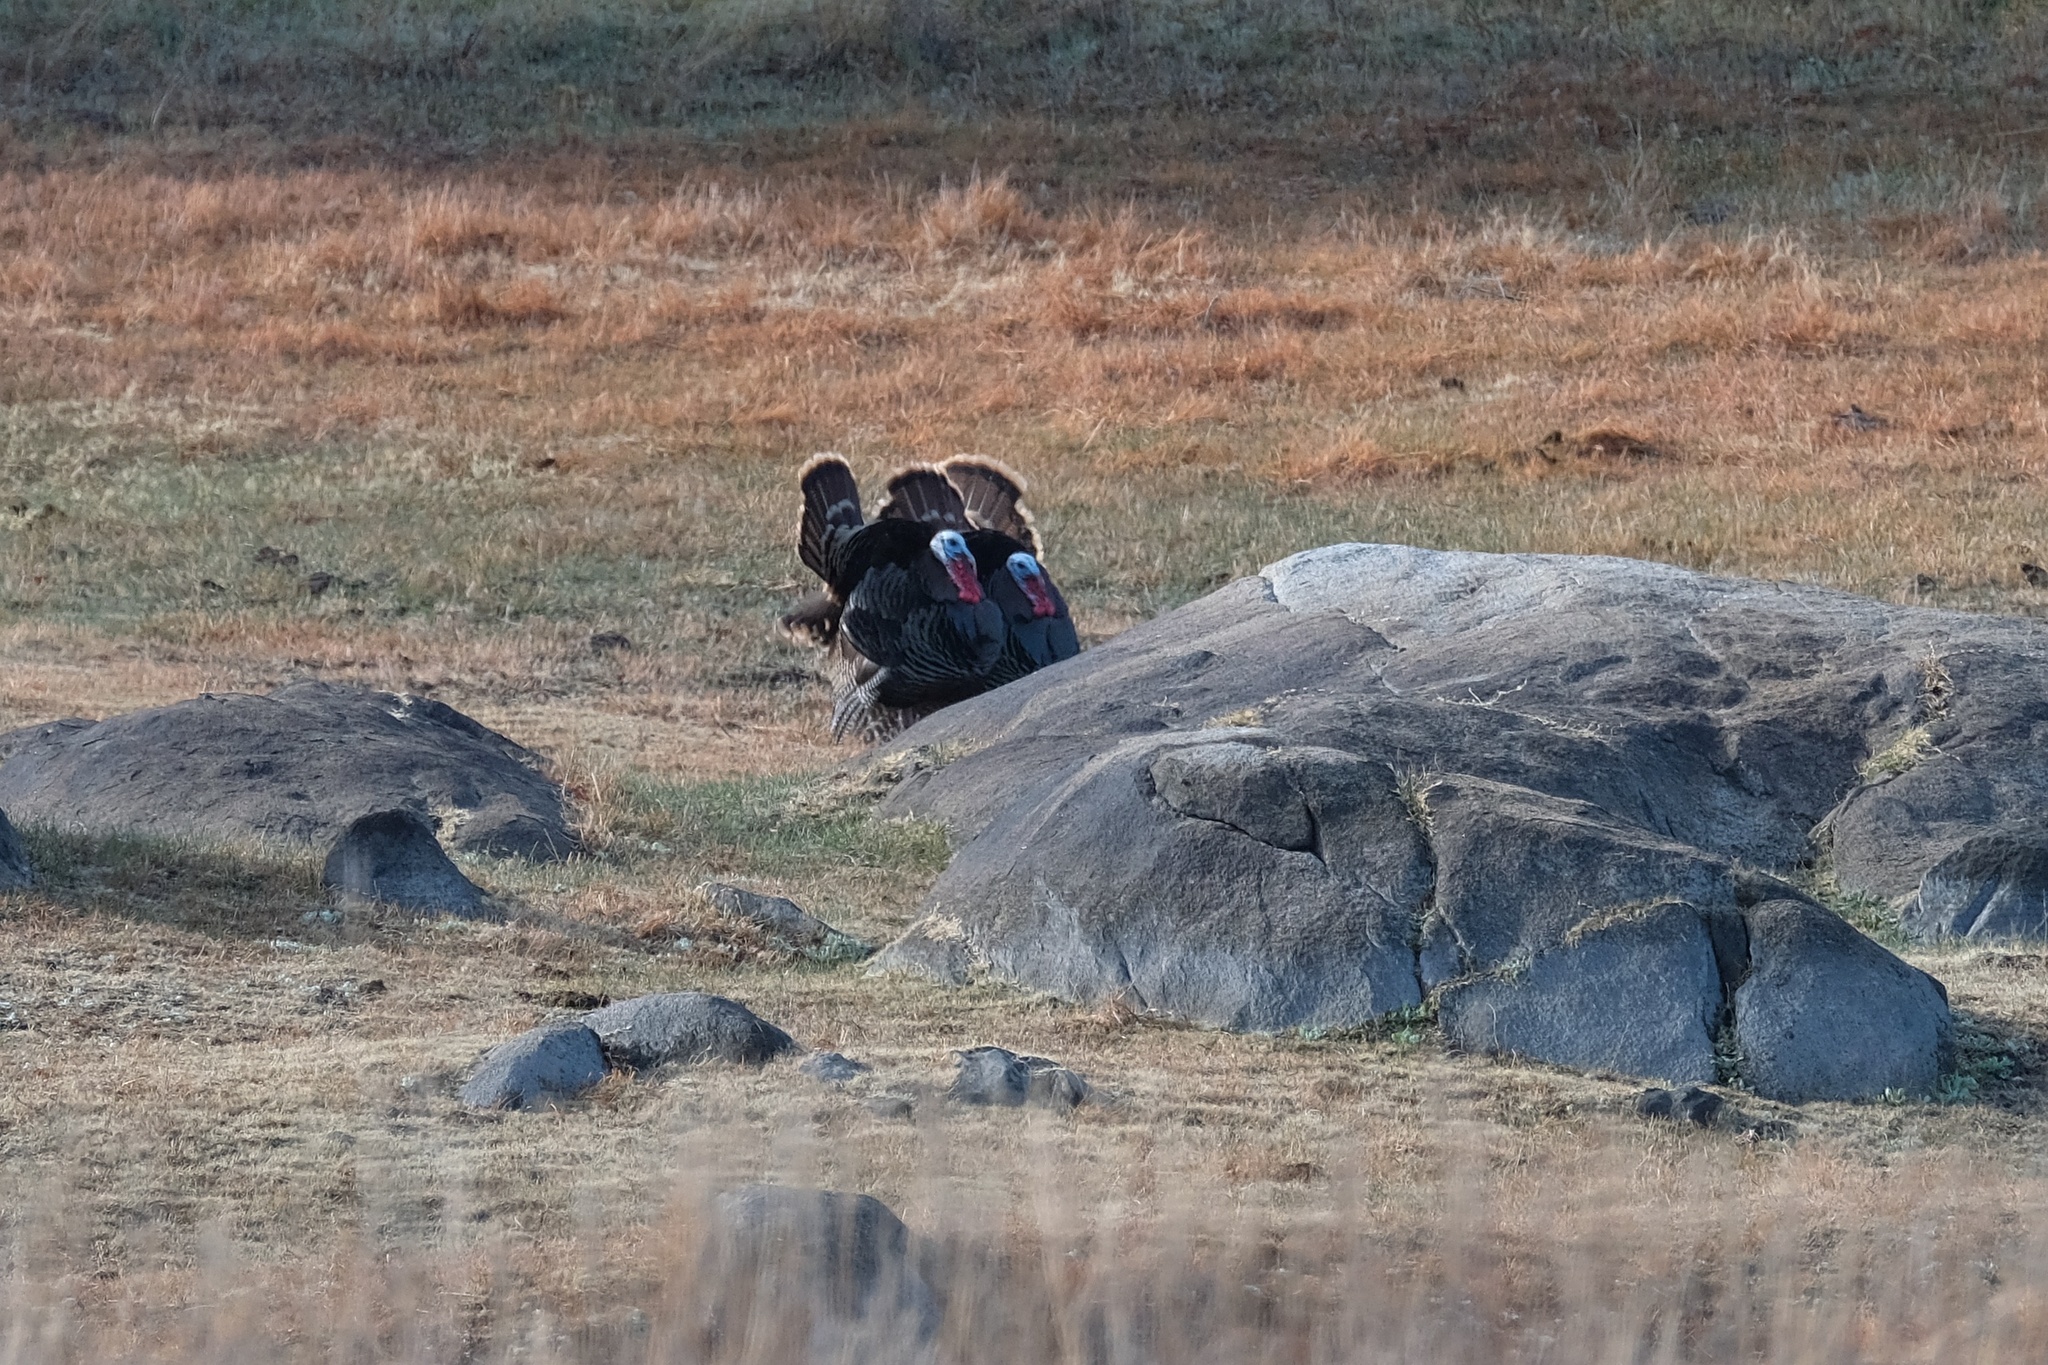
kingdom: Animalia
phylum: Chordata
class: Aves
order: Galliformes
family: Phasianidae
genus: Meleagris
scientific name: Meleagris gallopavo
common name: Wild turkey
